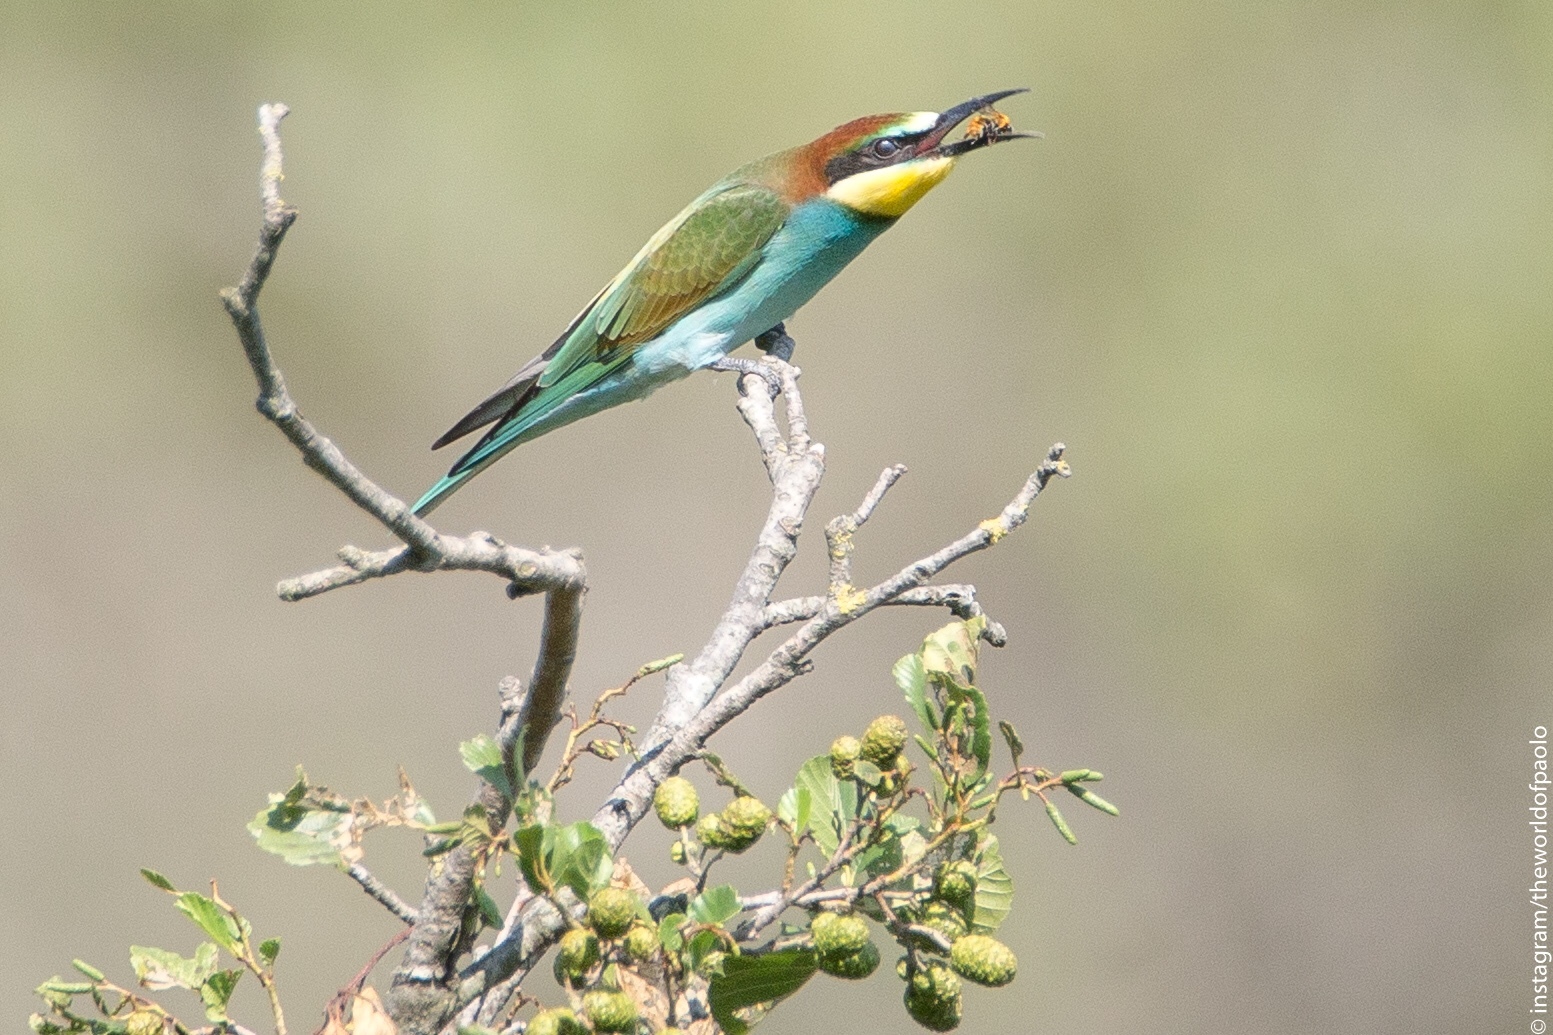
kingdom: Animalia
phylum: Chordata
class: Aves
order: Coraciiformes
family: Meropidae
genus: Merops
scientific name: Merops apiaster
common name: European bee-eater
